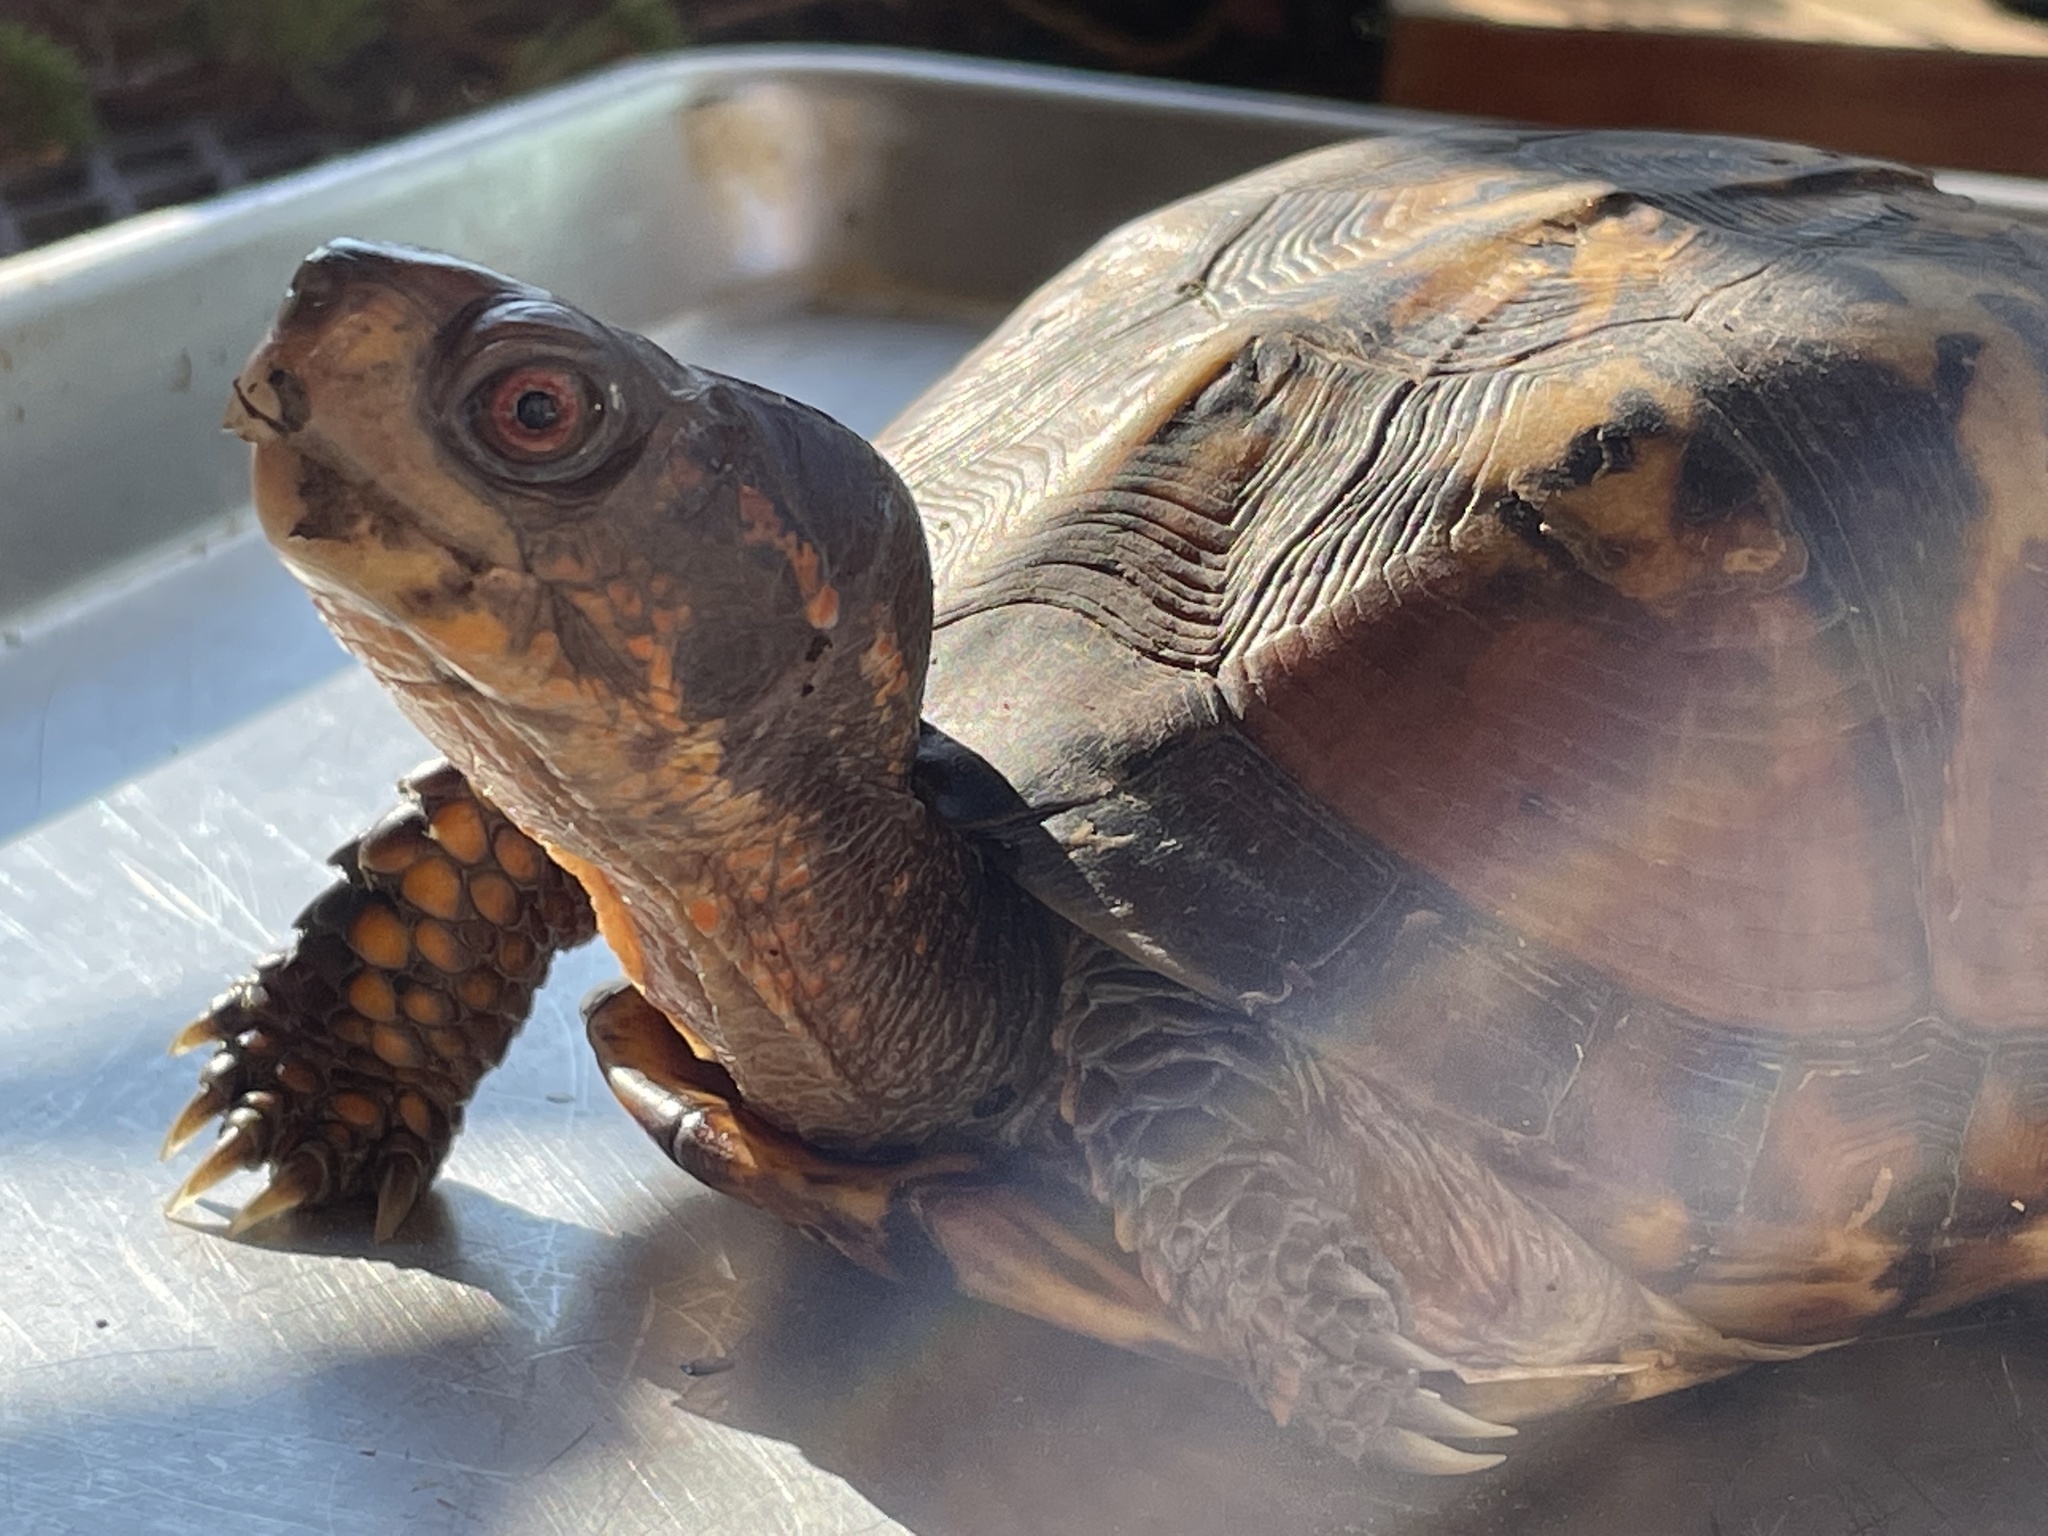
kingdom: Animalia
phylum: Chordata
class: Testudines
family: Emydidae
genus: Terrapene
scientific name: Terrapene carolina
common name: Common box turtle
